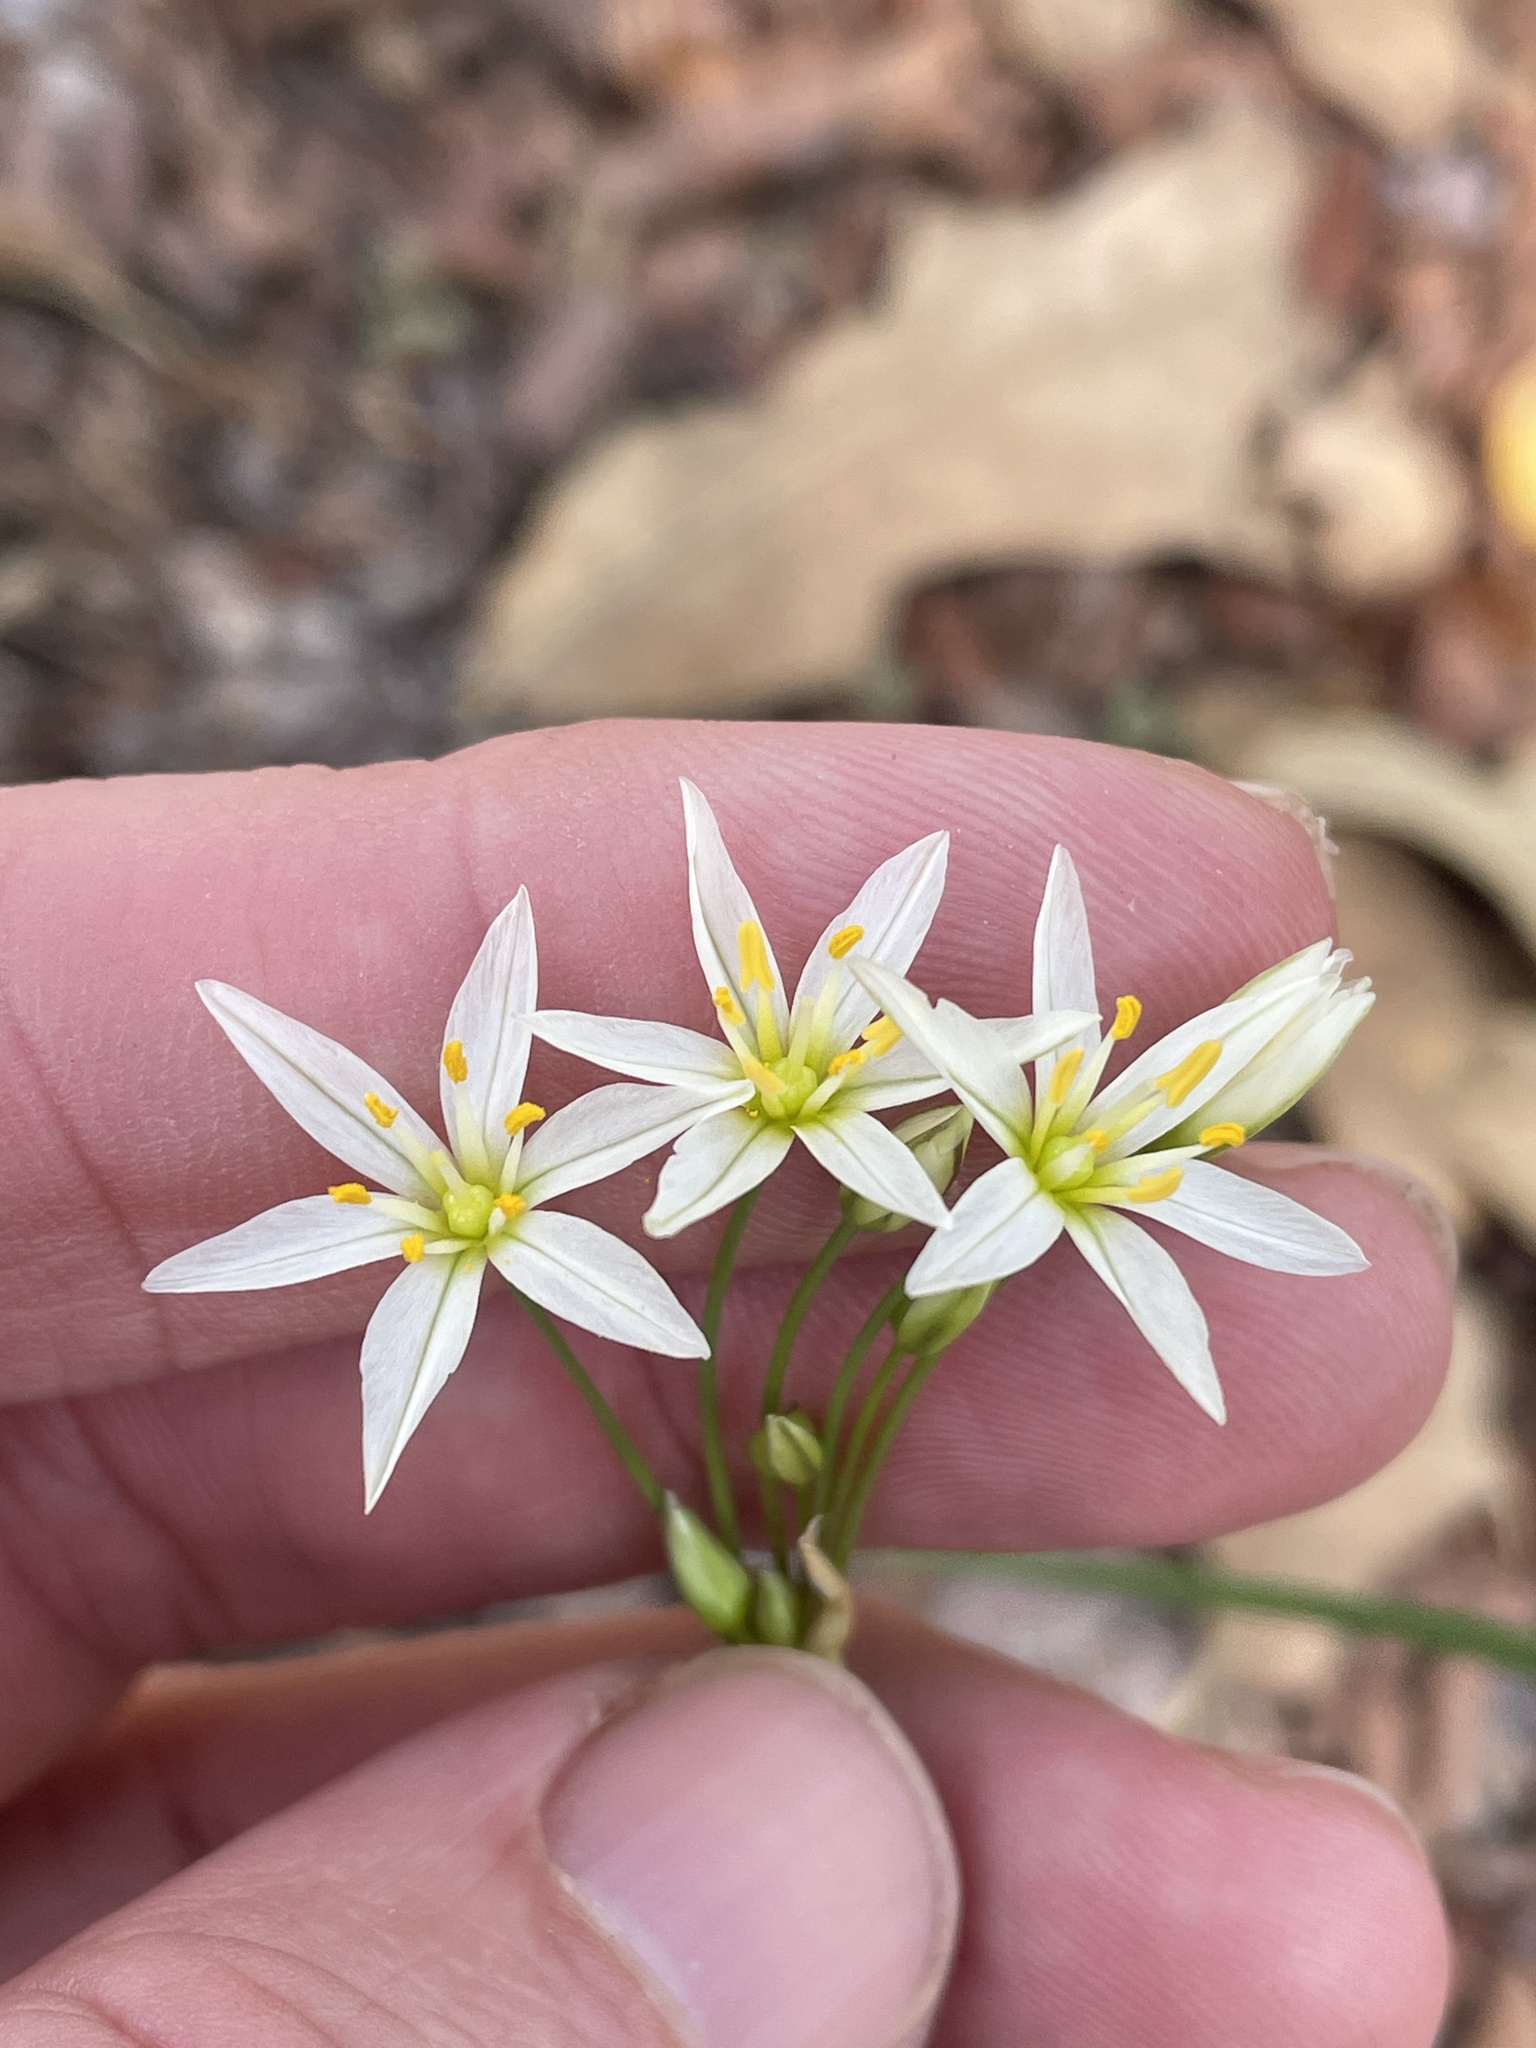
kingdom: Plantae
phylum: Tracheophyta
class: Liliopsida
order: Asparagales
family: Amaryllidaceae
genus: Nothoscordum
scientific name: Nothoscordum bivalve
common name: Crow-poison
